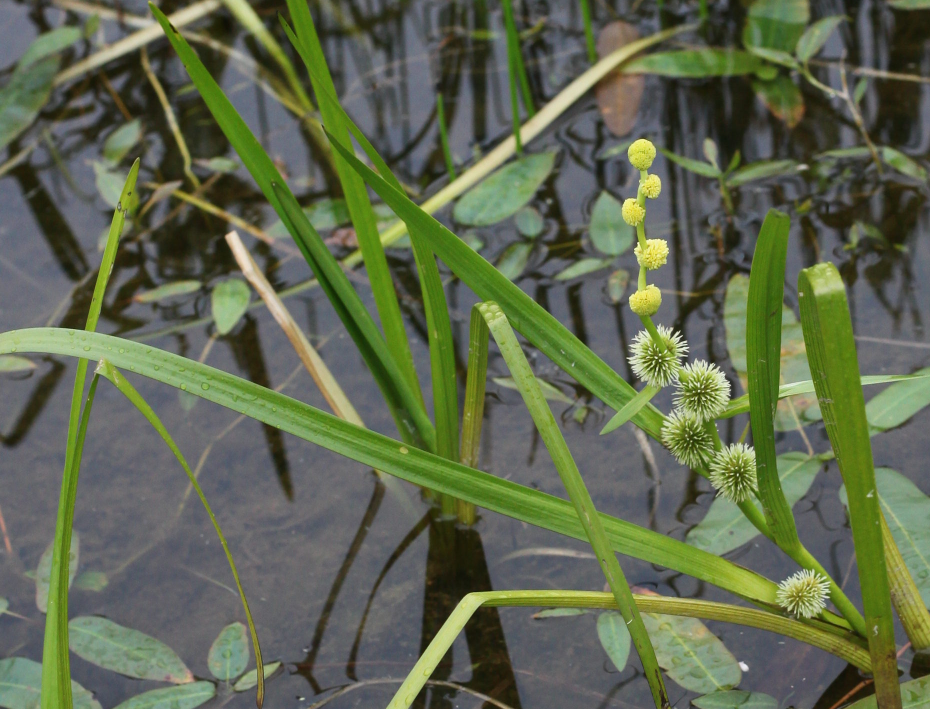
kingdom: Plantae
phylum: Tracheophyta
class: Liliopsida
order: Poales
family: Typhaceae
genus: Sparganium
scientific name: Sparganium emersum
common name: Unbranched bur-reed
